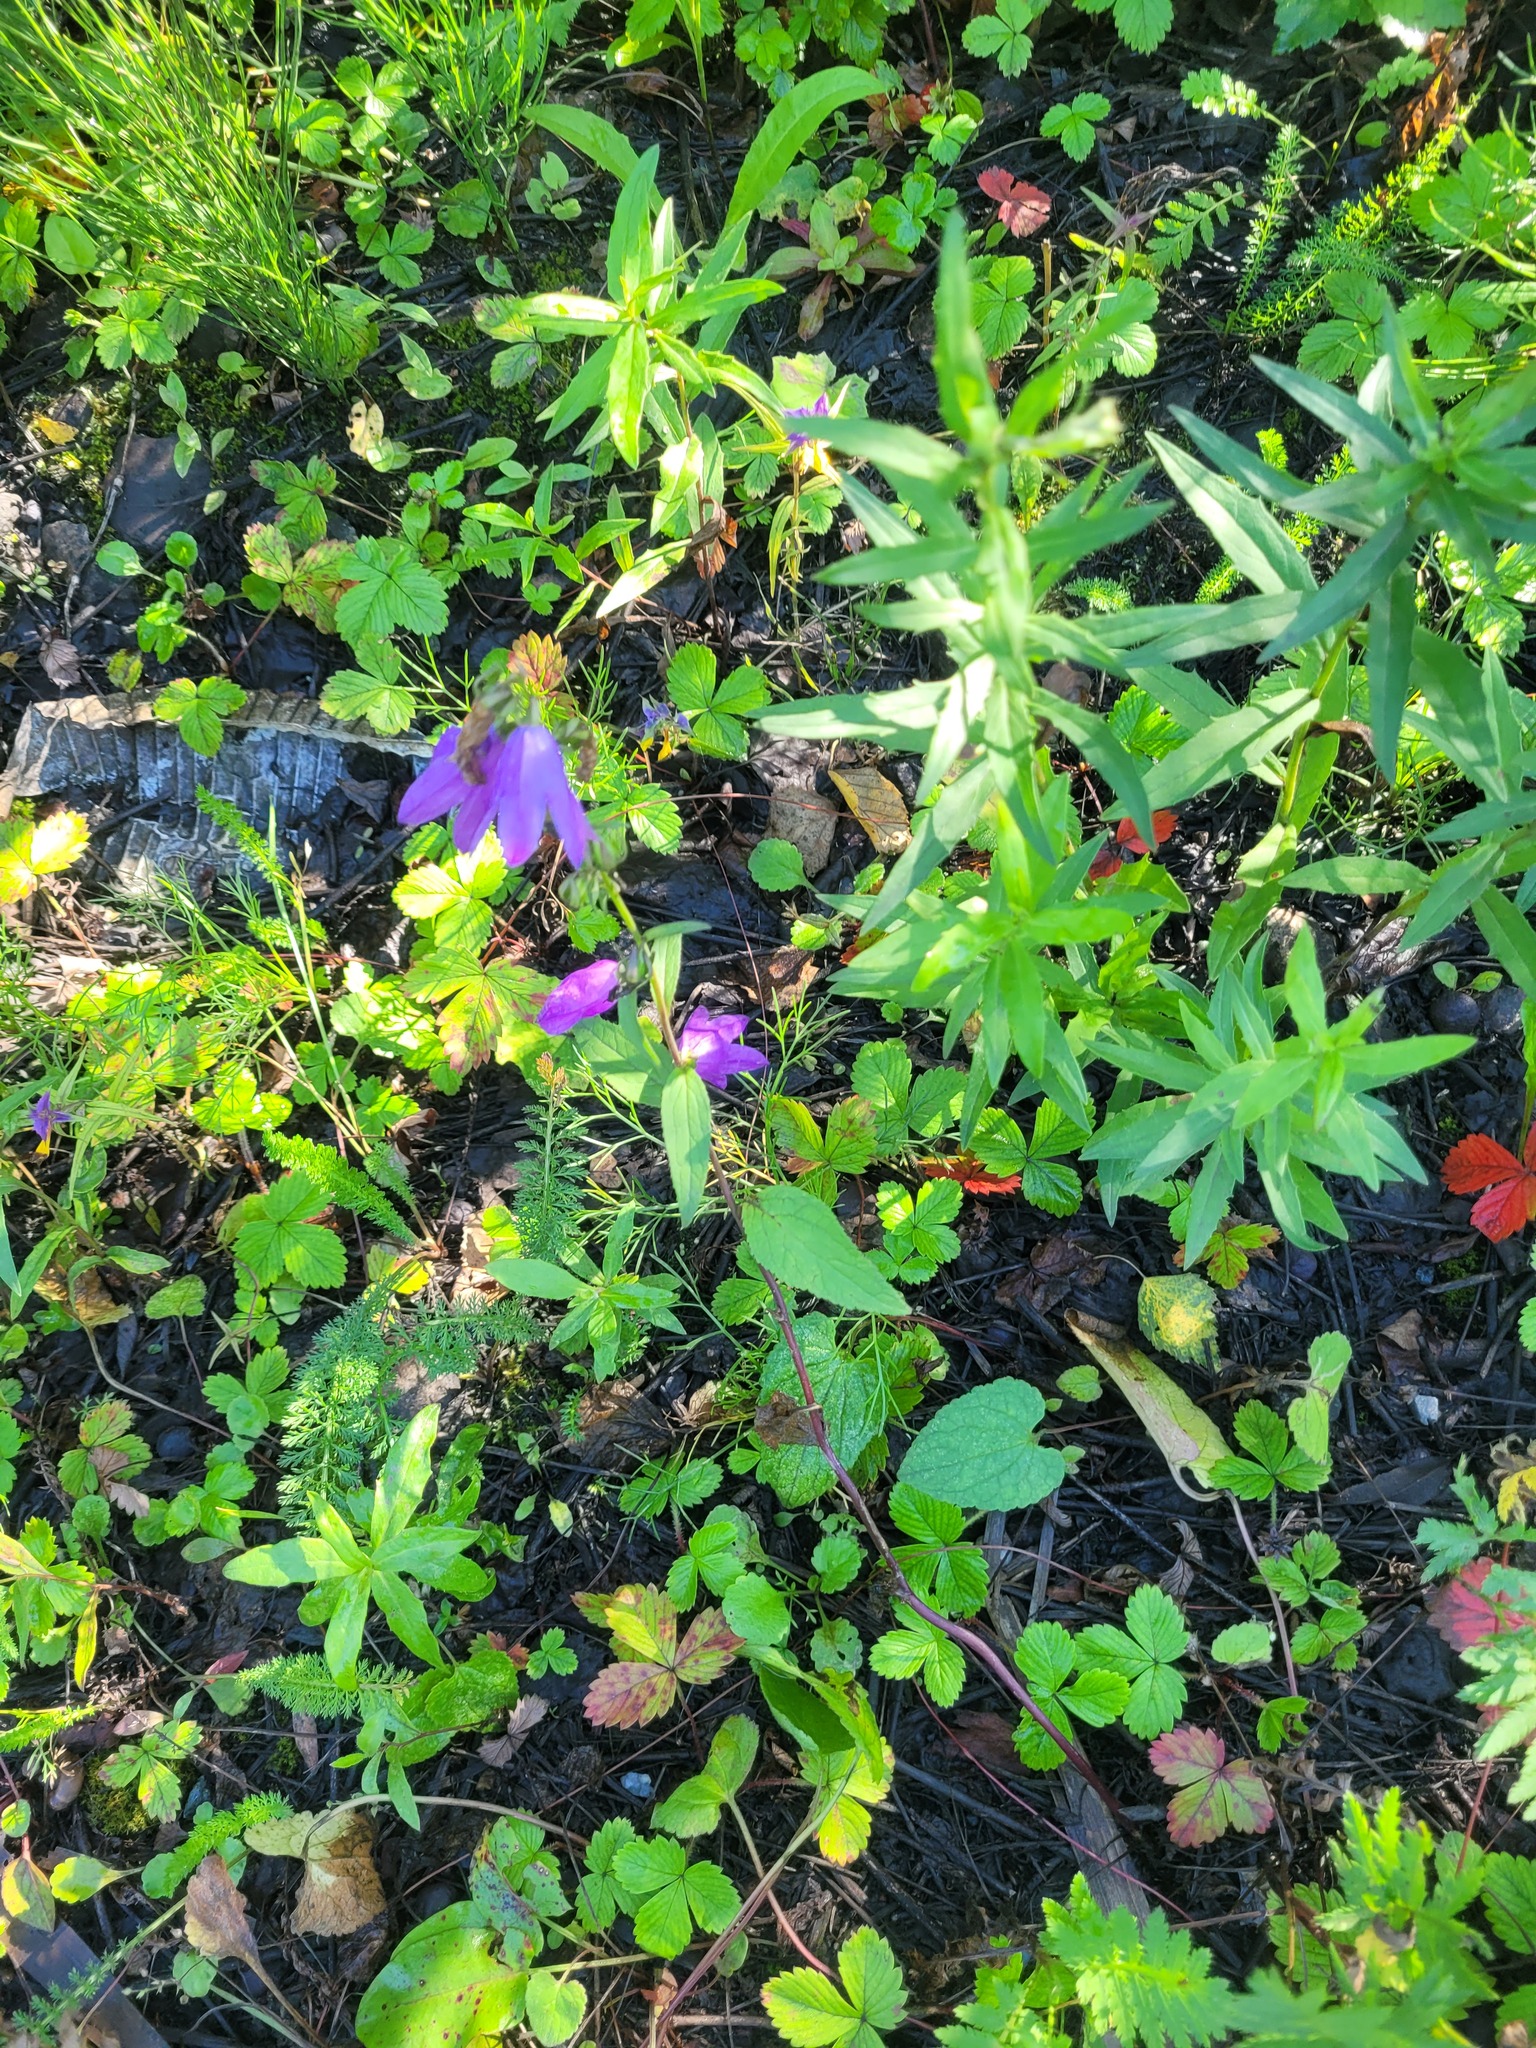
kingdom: Plantae
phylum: Tracheophyta
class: Magnoliopsida
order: Asterales
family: Campanulaceae
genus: Campanula
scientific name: Campanula rapunculoides
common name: Creeping bellflower
